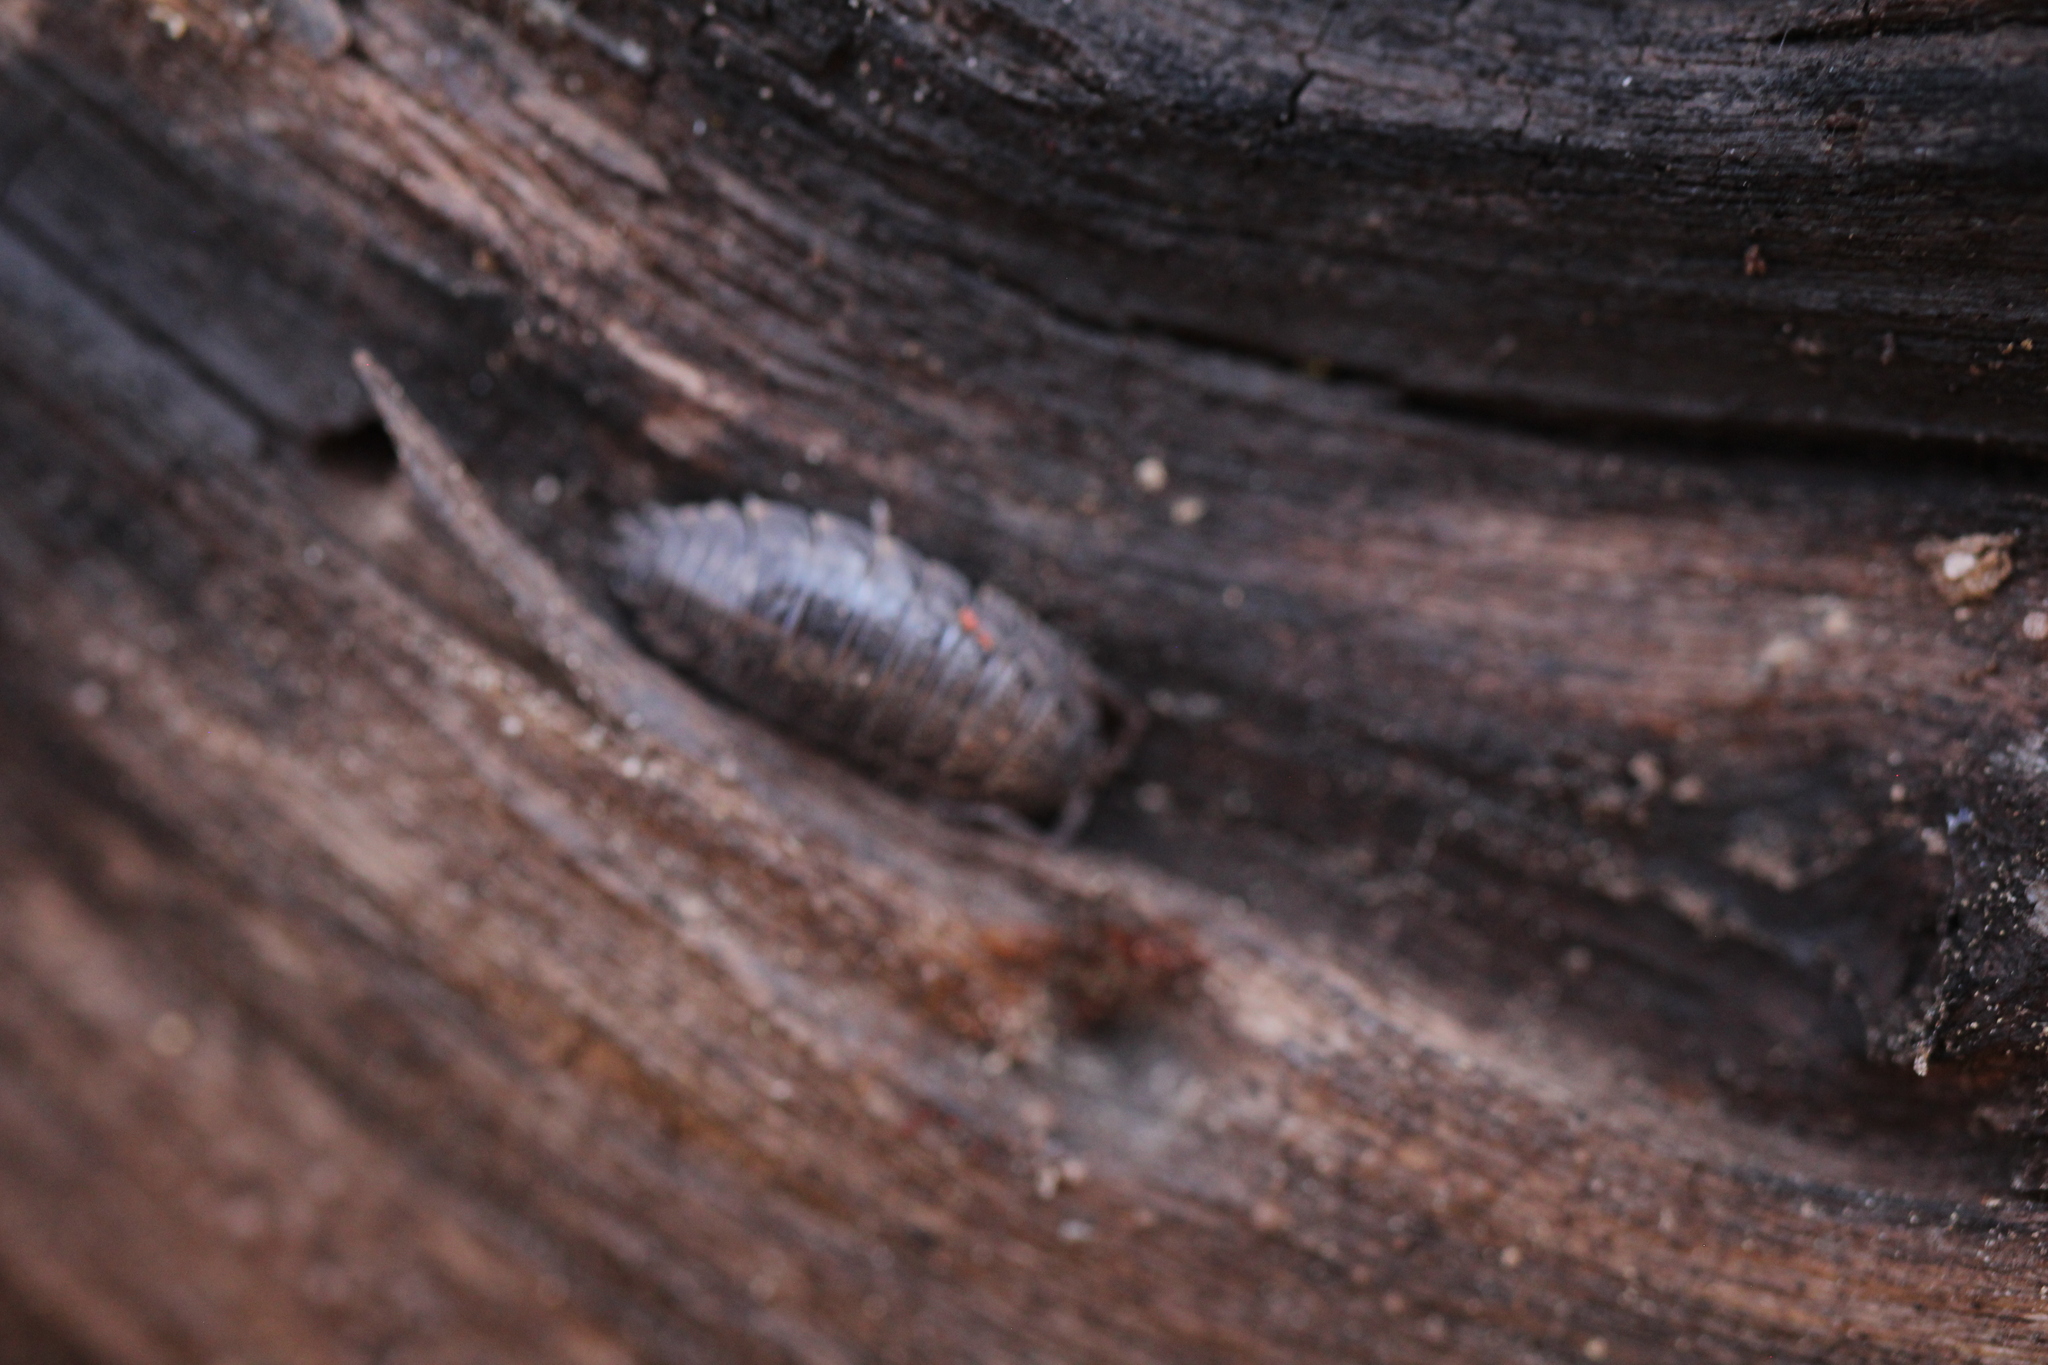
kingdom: Animalia
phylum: Arthropoda
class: Malacostraca
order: Isopoda
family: Trachelipodidae
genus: Trachelipus
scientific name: Trachelipus rathkii
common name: Isopod
